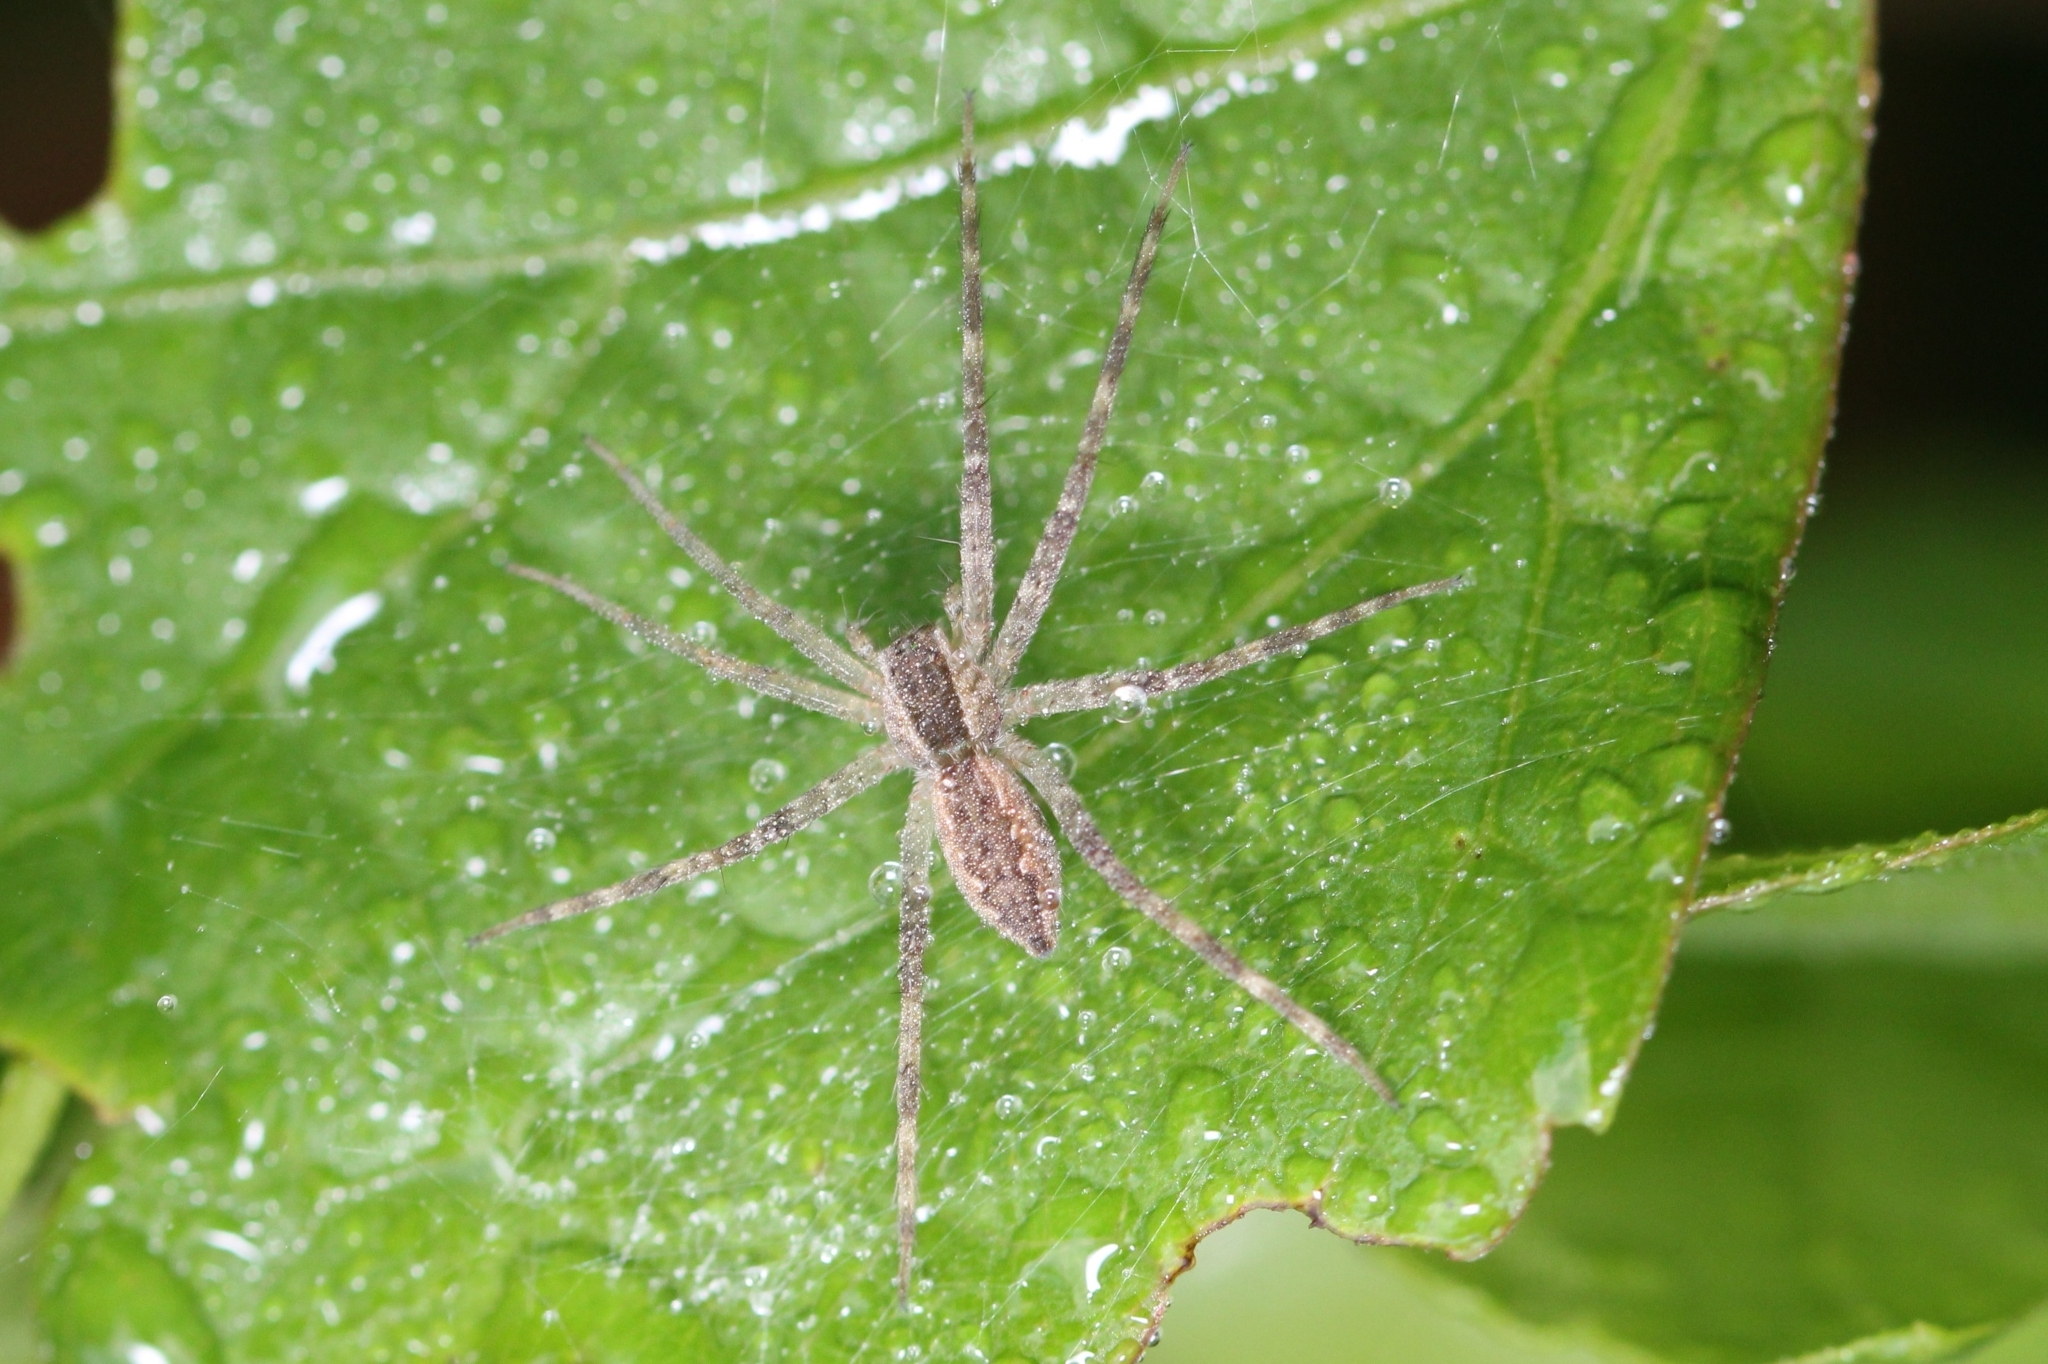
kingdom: Animalia
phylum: Arthropoda
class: Arachnida
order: Araneae
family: Pisauridae
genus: Pisaurina
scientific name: Pisaurina mira
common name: American nursery web spider
